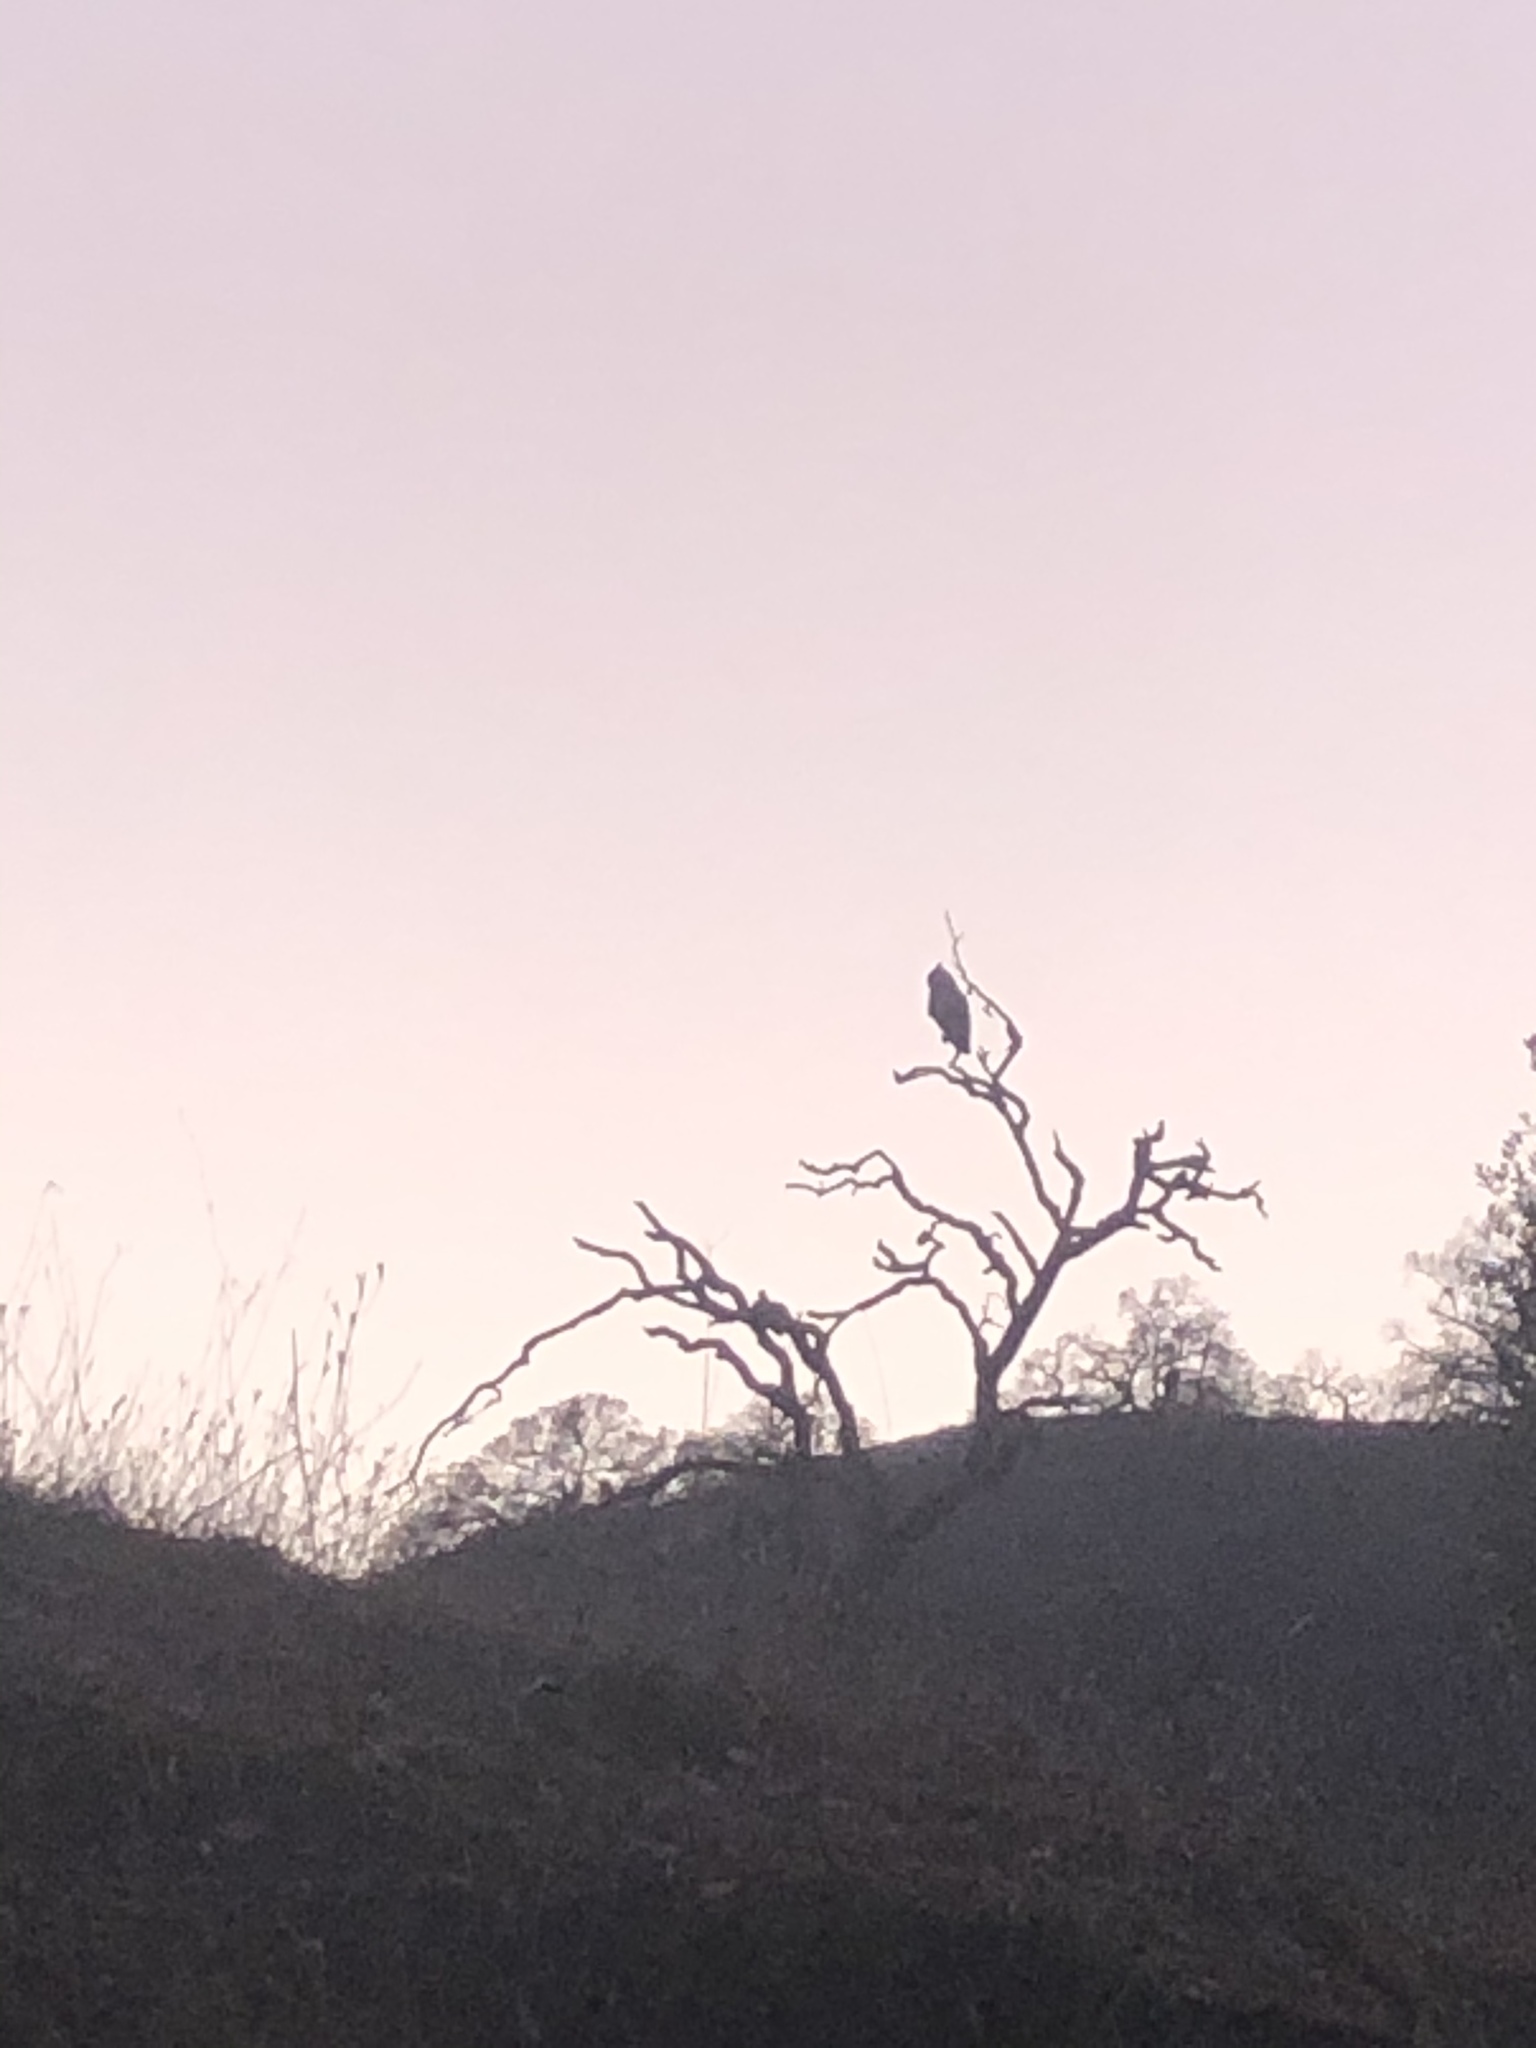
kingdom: Animalia
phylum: Chordata
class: Aves
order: Strigiformes
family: Strigidae
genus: Bubo
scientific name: Bubo virginianus
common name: Great horned owl
